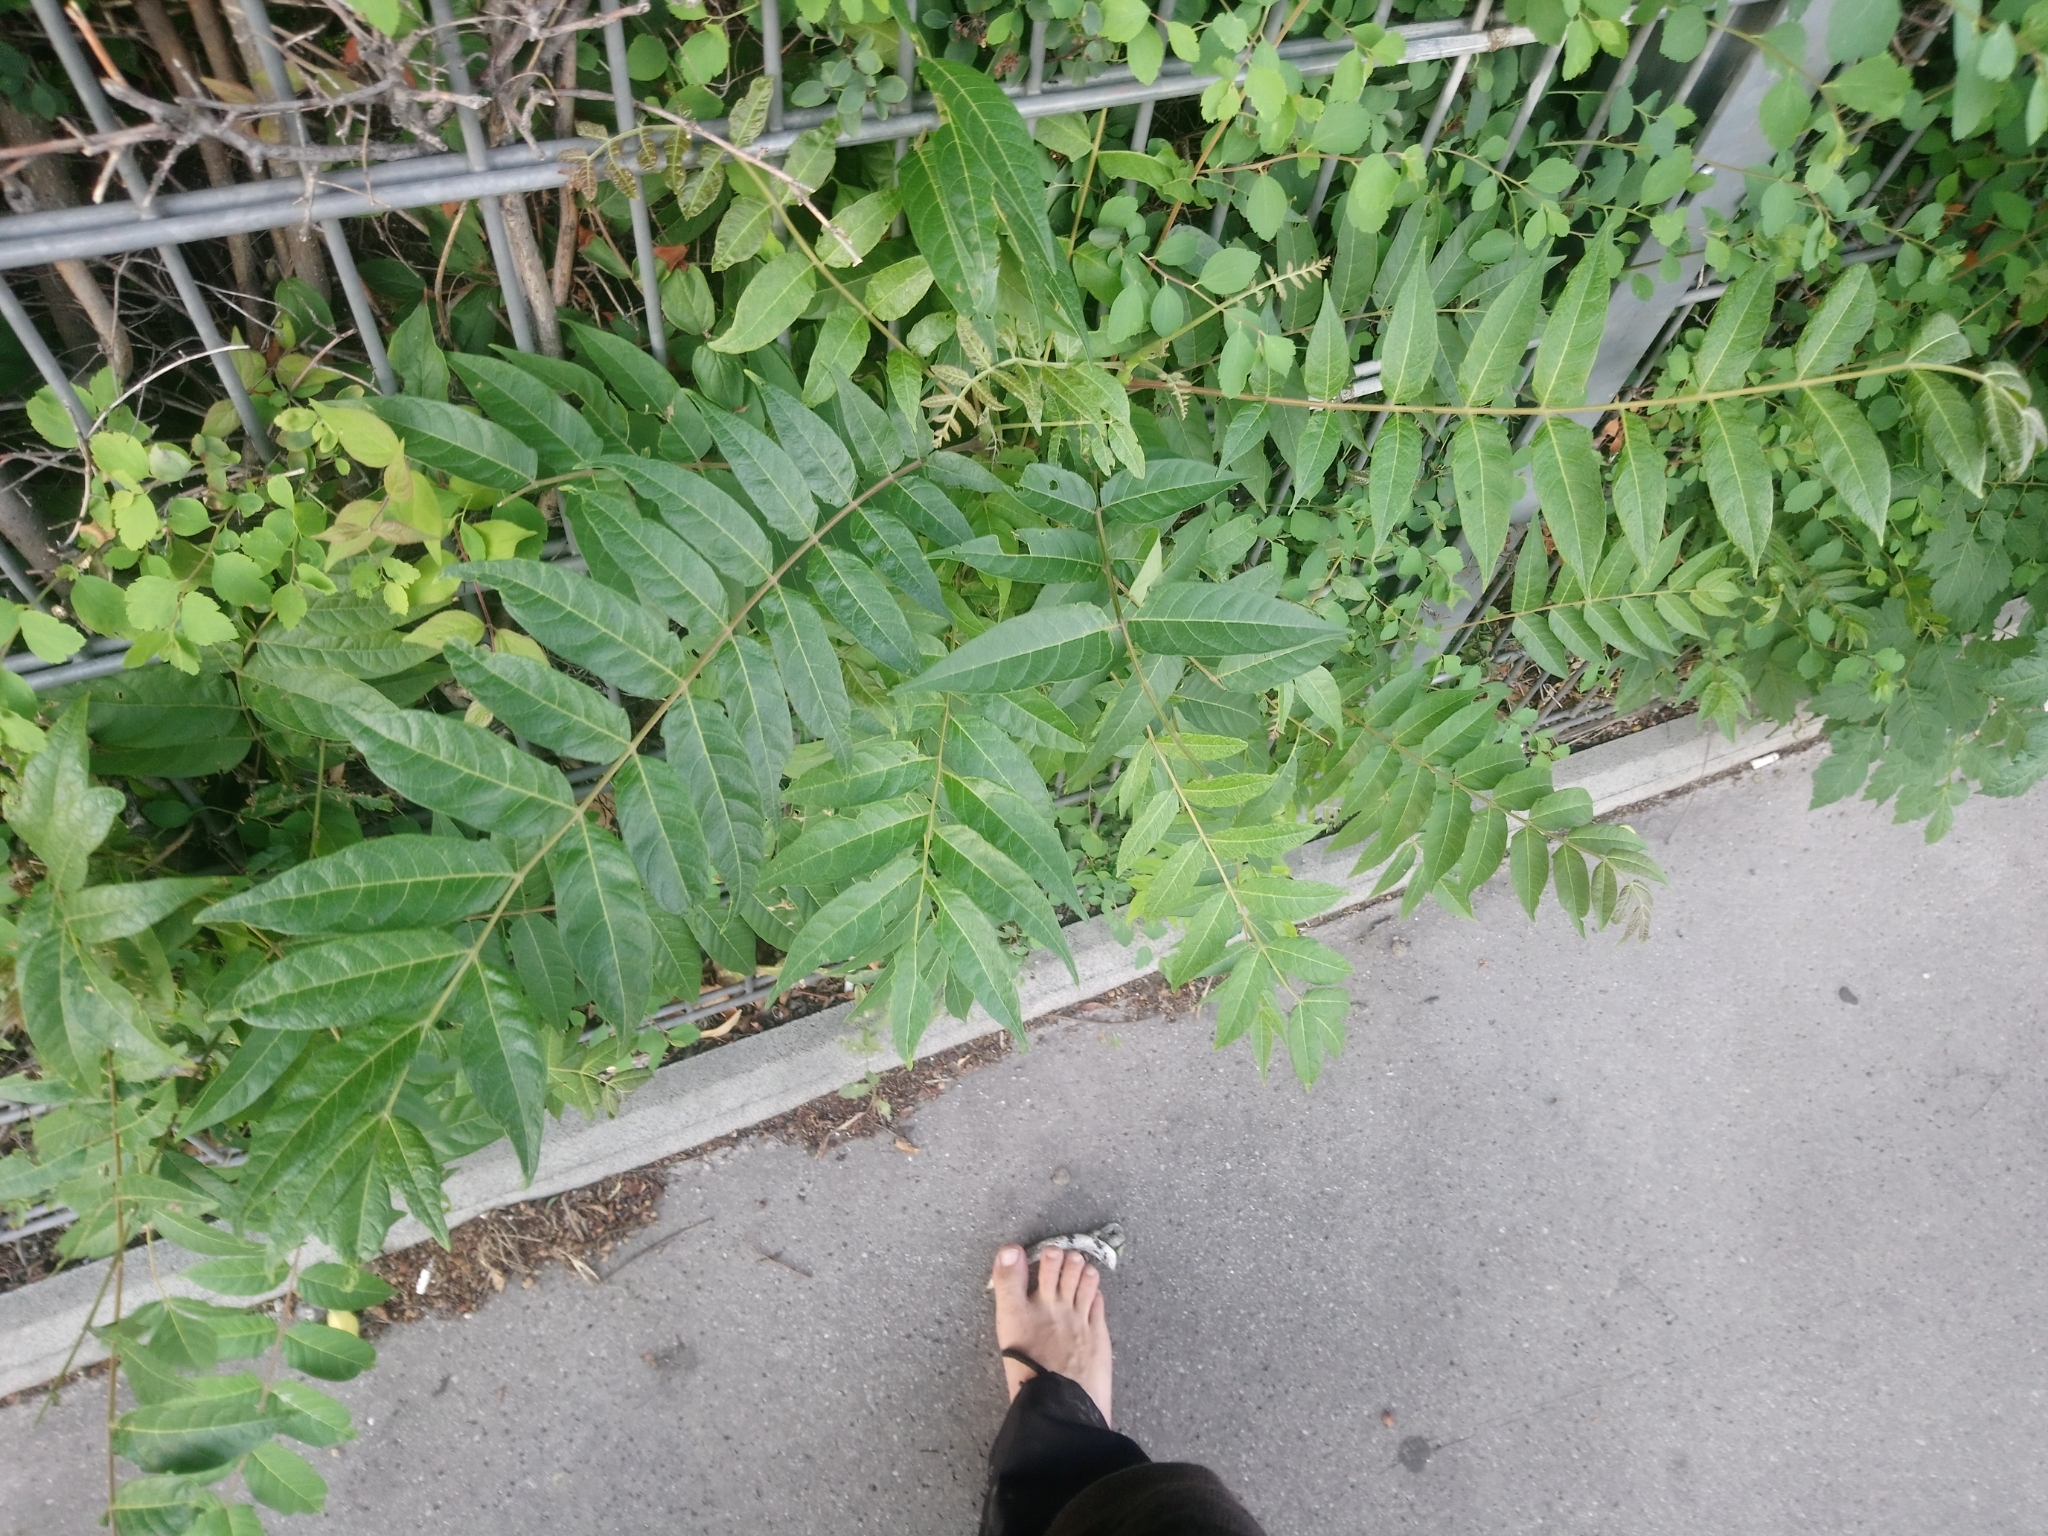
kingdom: Plantae
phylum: Tracheophyta
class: Magnoliopsida
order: Sapindales
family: Simaroubaceae
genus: Ailanthus
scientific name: Ailanthus altissima
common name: Tree-of-heaven
